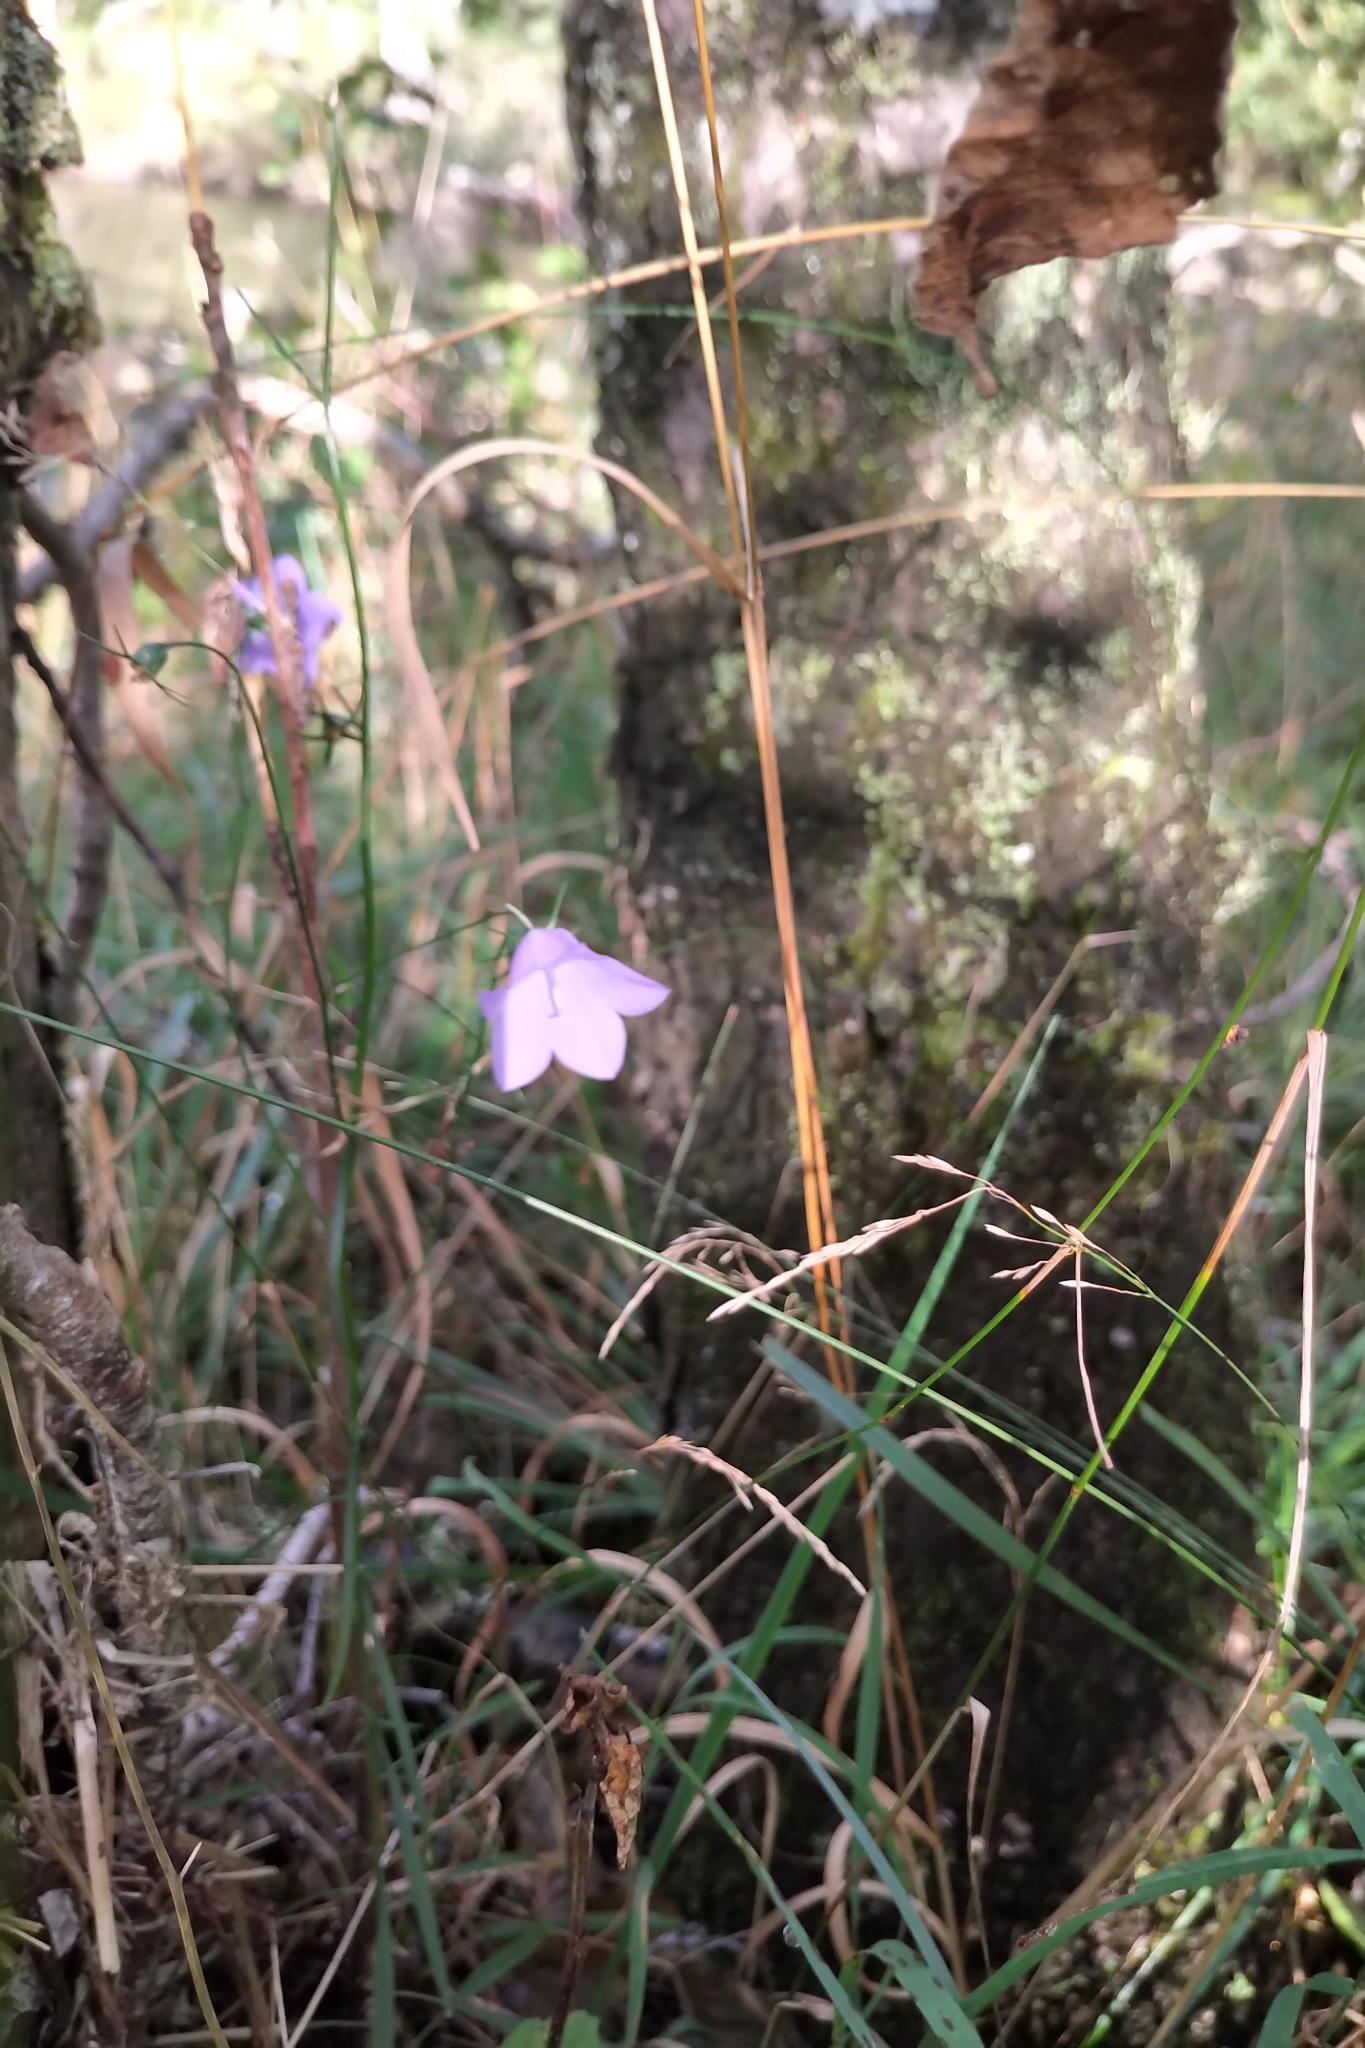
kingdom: Plantae
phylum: Tracheophyta
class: Magnoliopsida
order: Asterales
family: Campanulaceae
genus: Campanula
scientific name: Campanula rotundifolia
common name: Harebell
